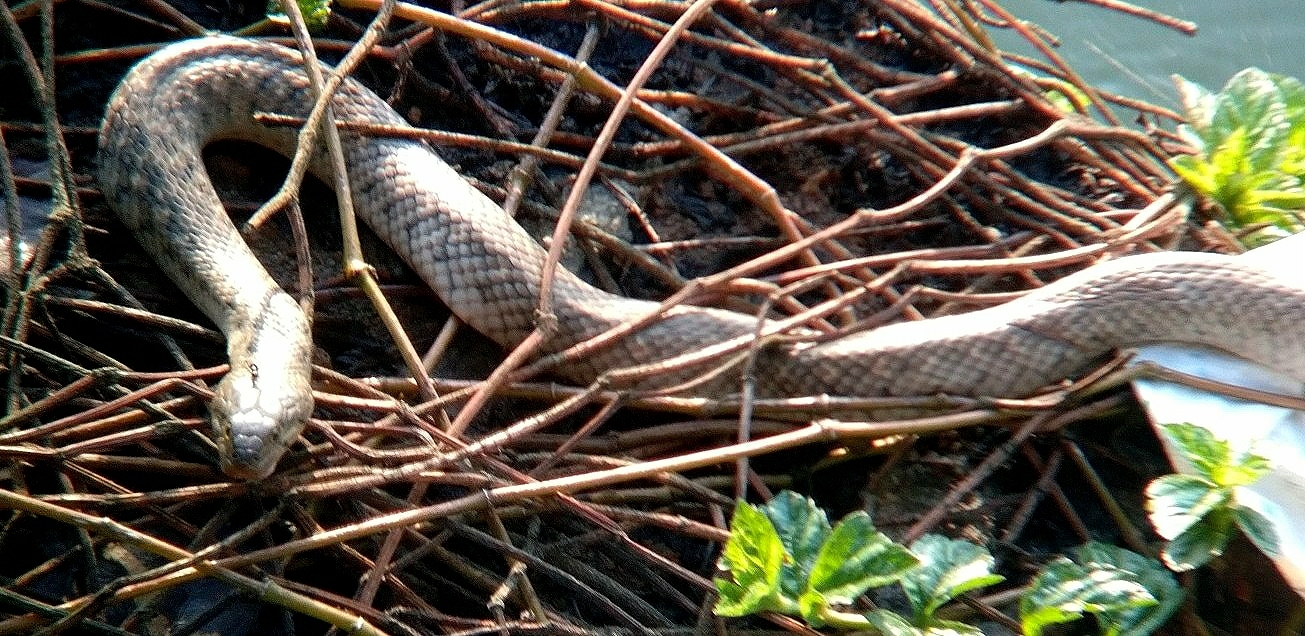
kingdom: Animalia
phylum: Chordata
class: Squamata
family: Colubridae
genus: Fowlea
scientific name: Fowlea piscator
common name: Asiatic water snake
